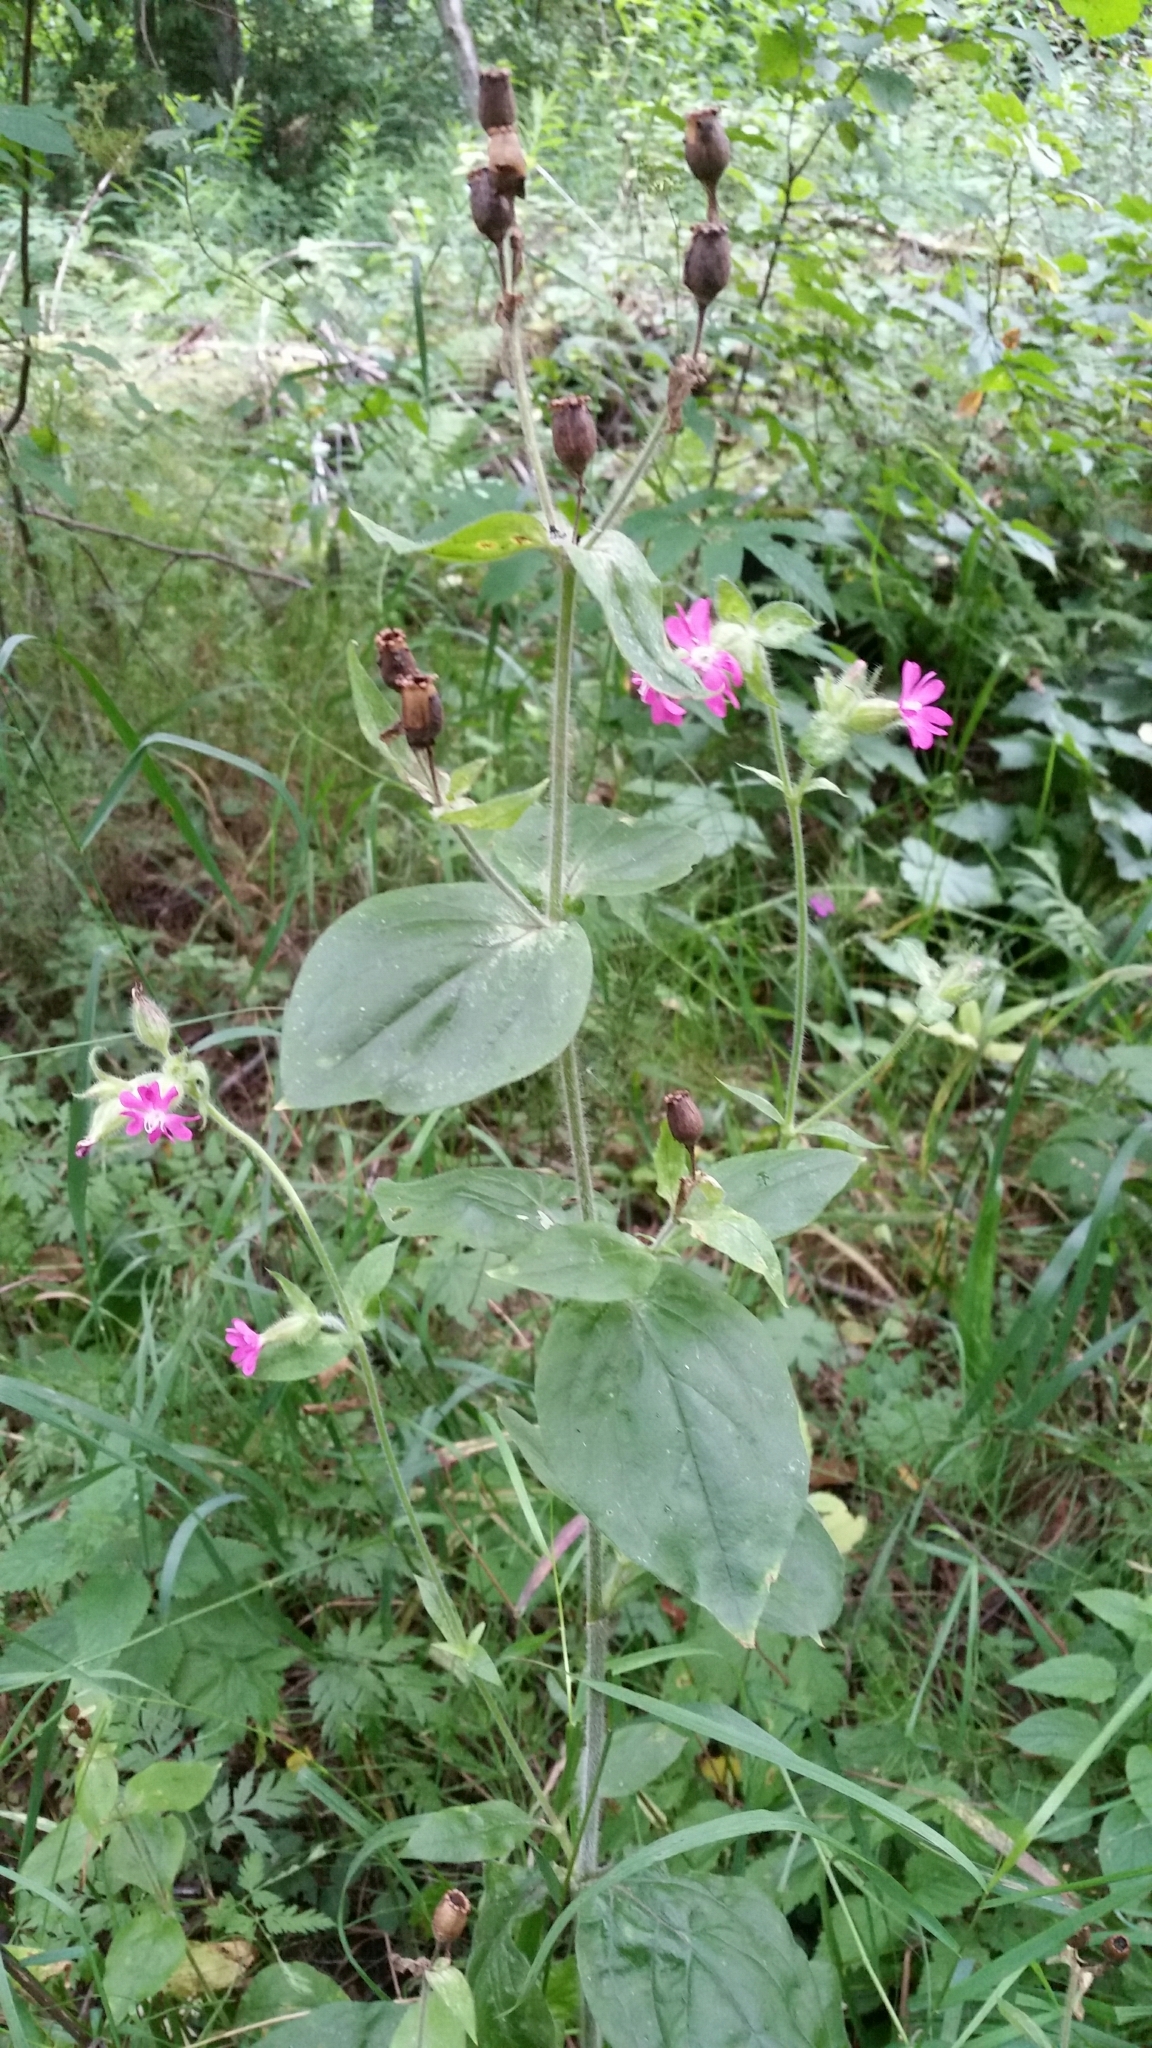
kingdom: Plantae
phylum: Tracheophyta
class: Magnoliopsida
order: Caryophyllales
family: Caryophyllaceae
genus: Silene
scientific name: Silene dioica
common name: Red campion
